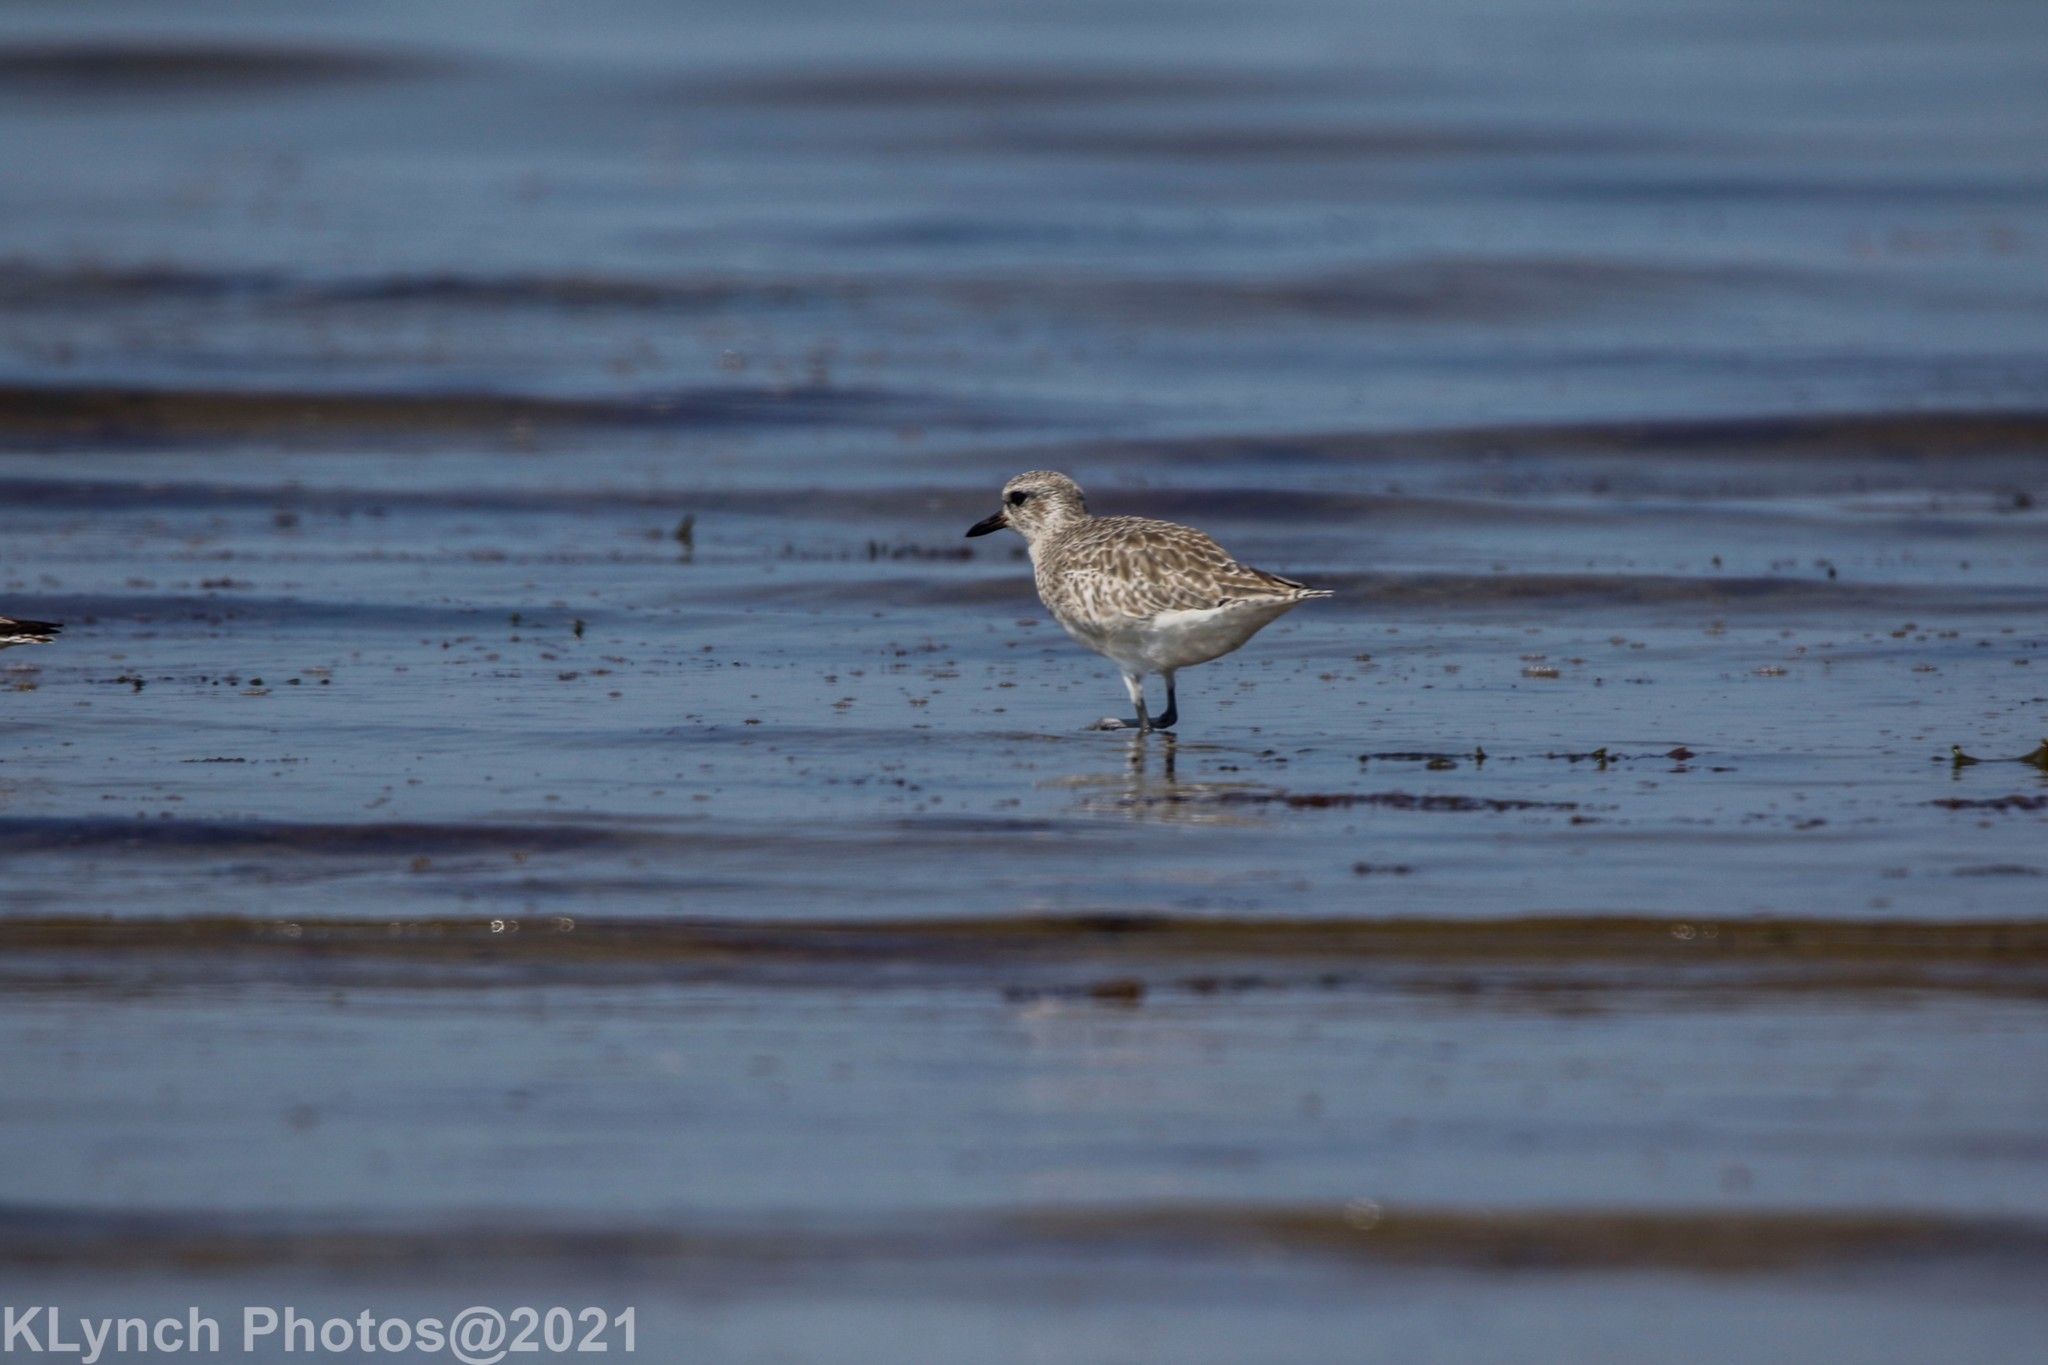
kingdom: Animalia
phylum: Chordata
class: Aves
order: Charadriiformes
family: Charadriidae
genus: Pluvialis
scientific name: Pluvialis squatarola
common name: Grey plover
